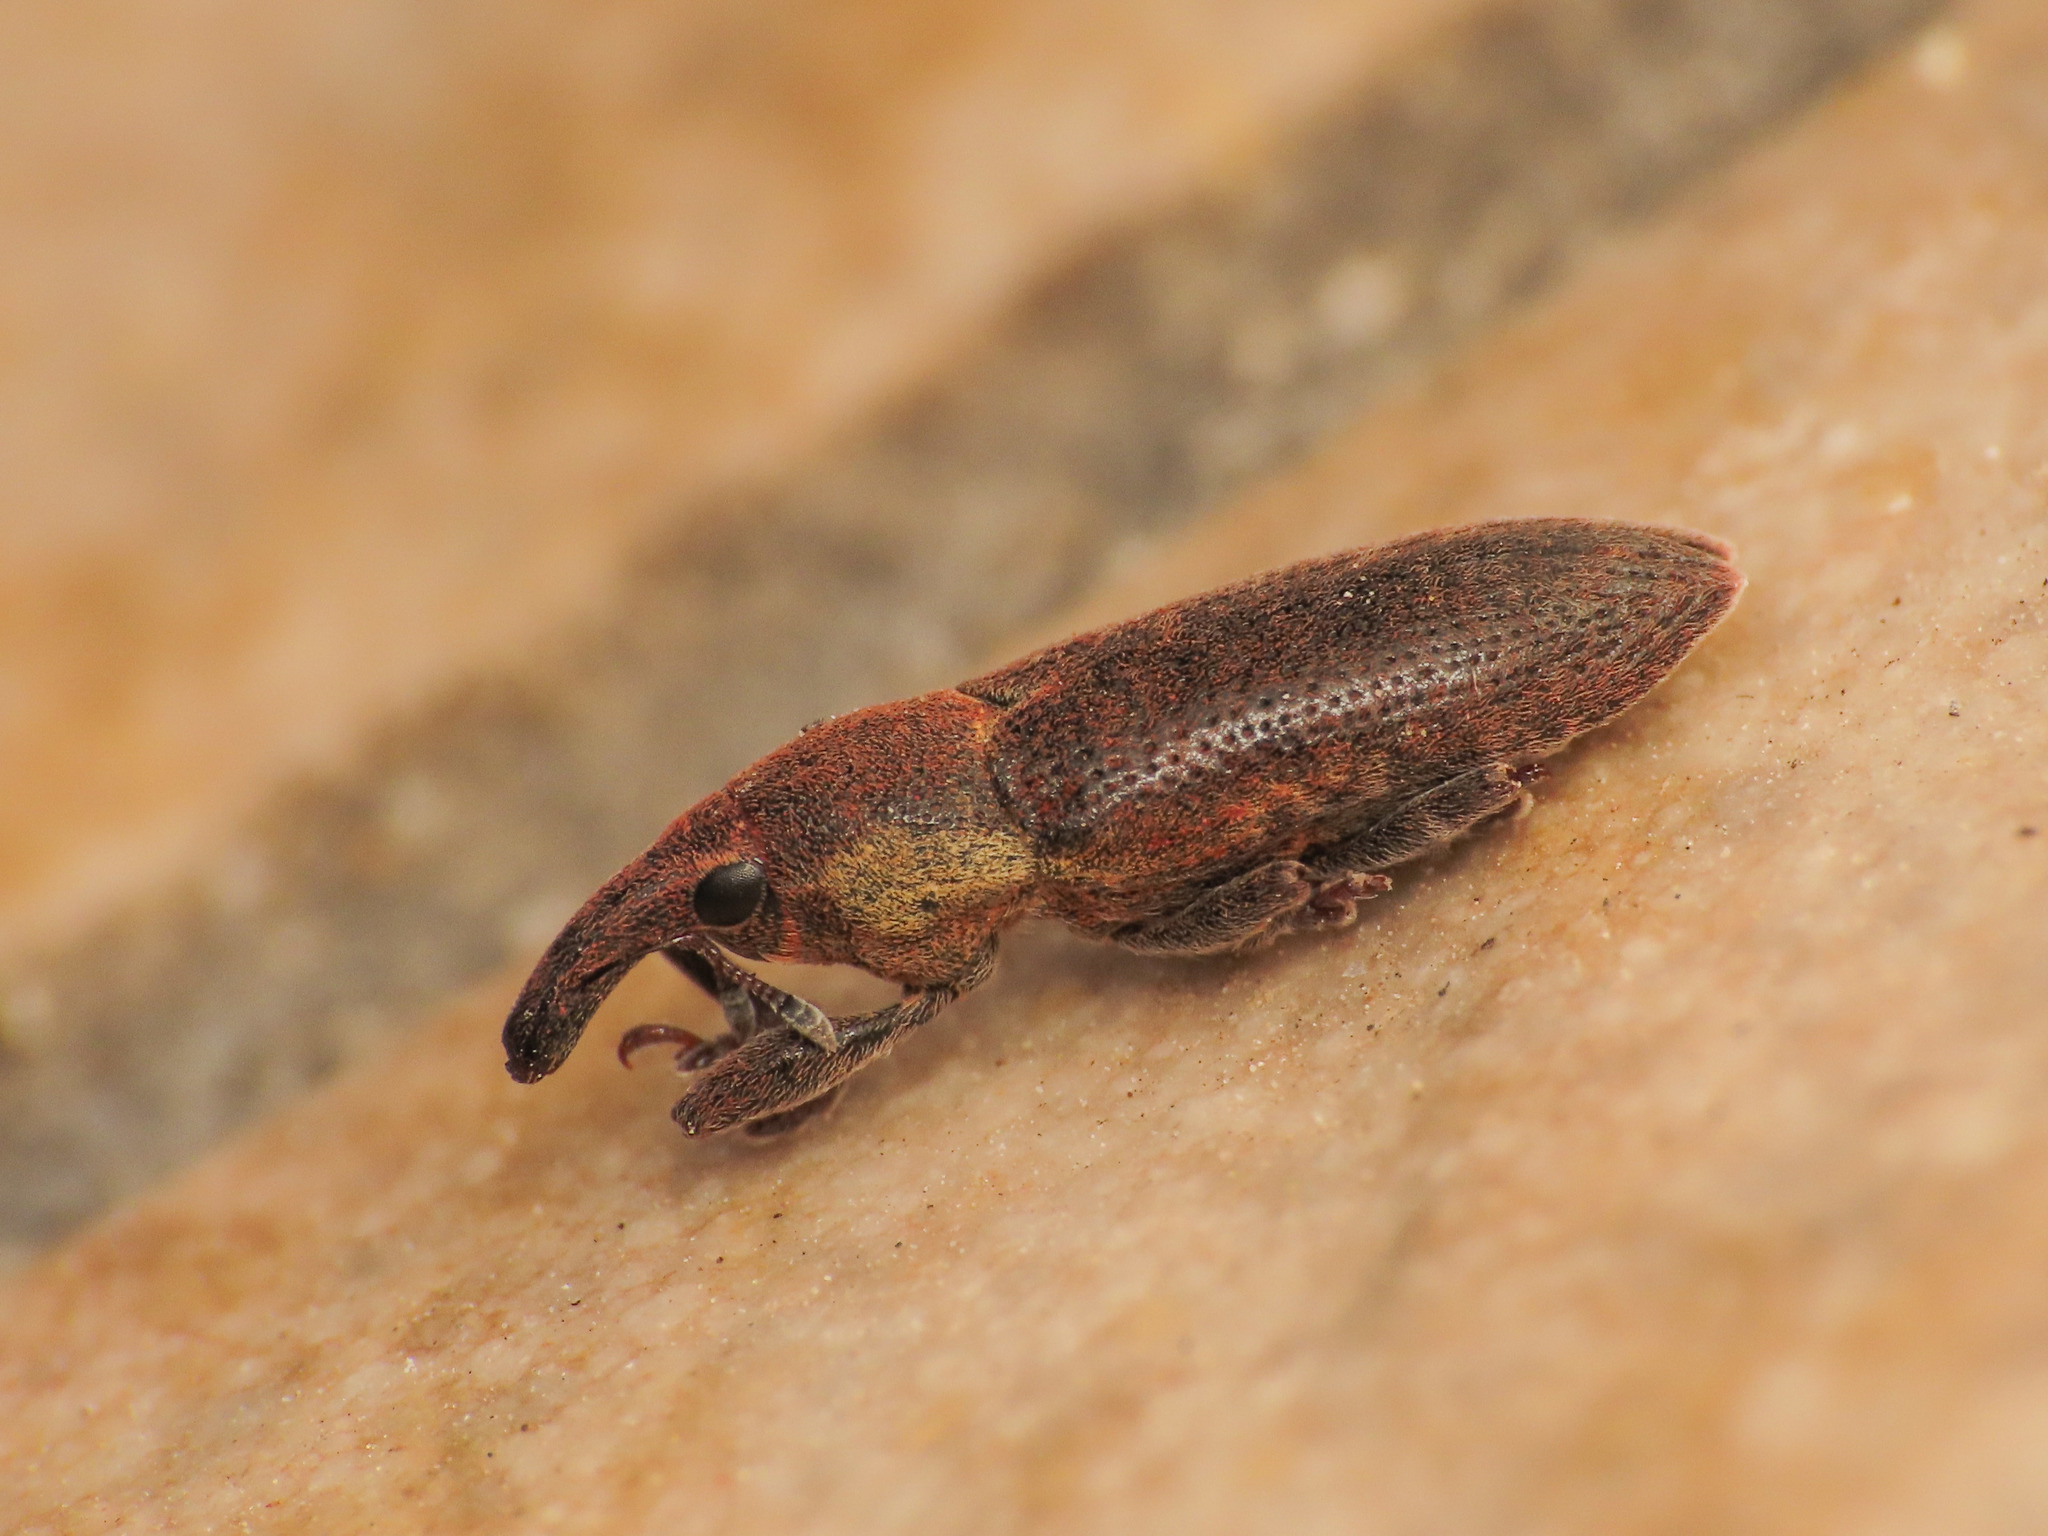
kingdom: Animalia
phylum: Arthropoda
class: Insecta
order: Coleoptera
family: Curculionidae
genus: Lixus
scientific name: Lixus cinerascens
